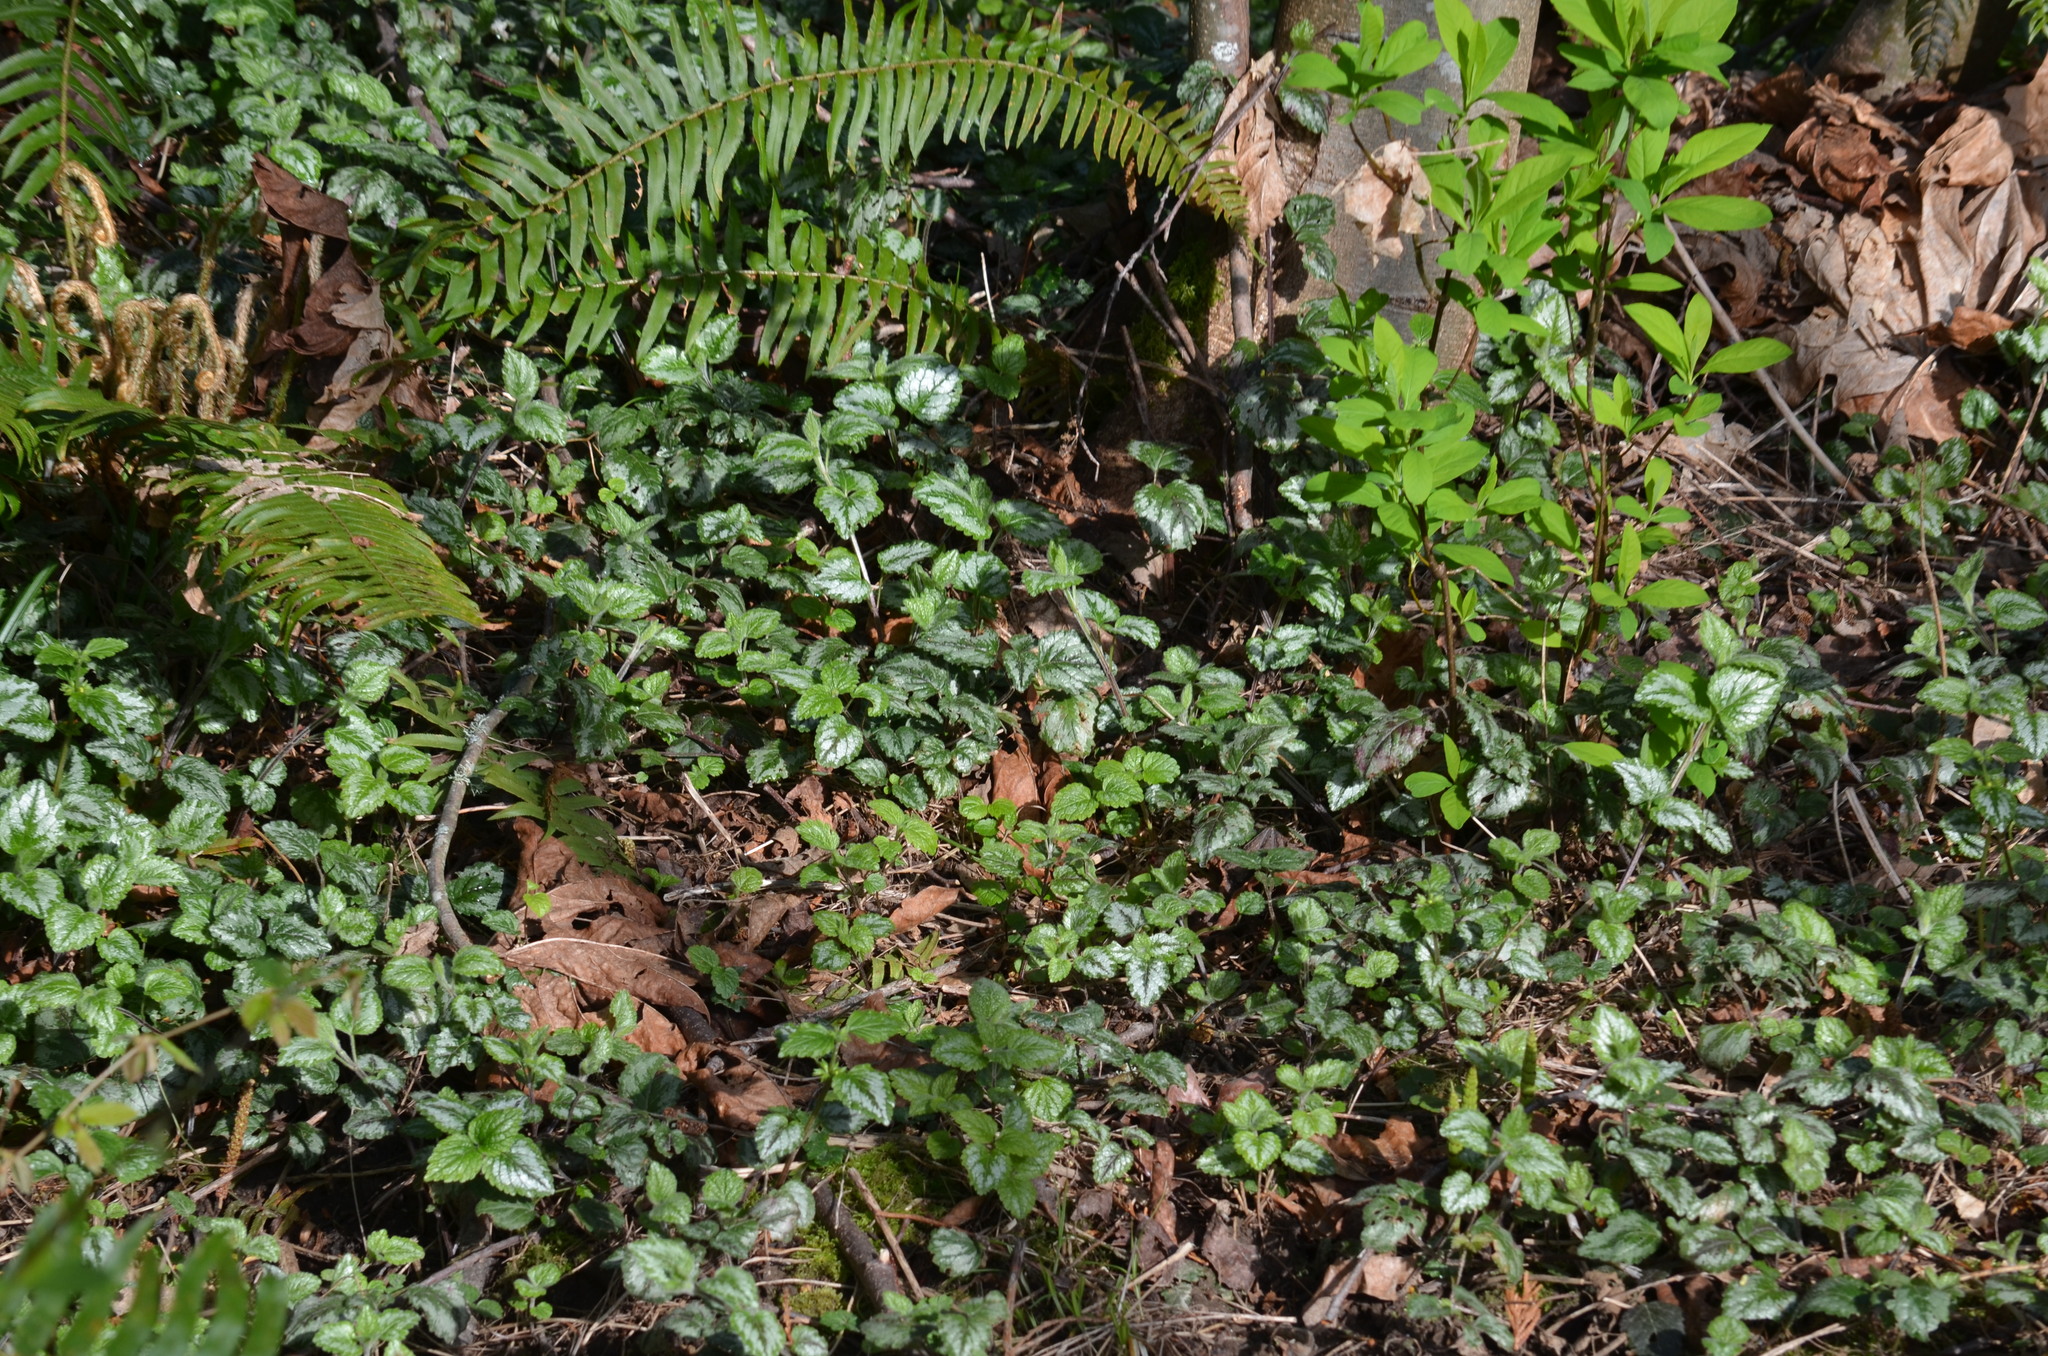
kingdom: Plantae
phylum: Tracheophyta
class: Magnoliopsida
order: Lamiales
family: Lamiaceae
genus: Lamium
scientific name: Lamium galeobdolon
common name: Yellow archangel
